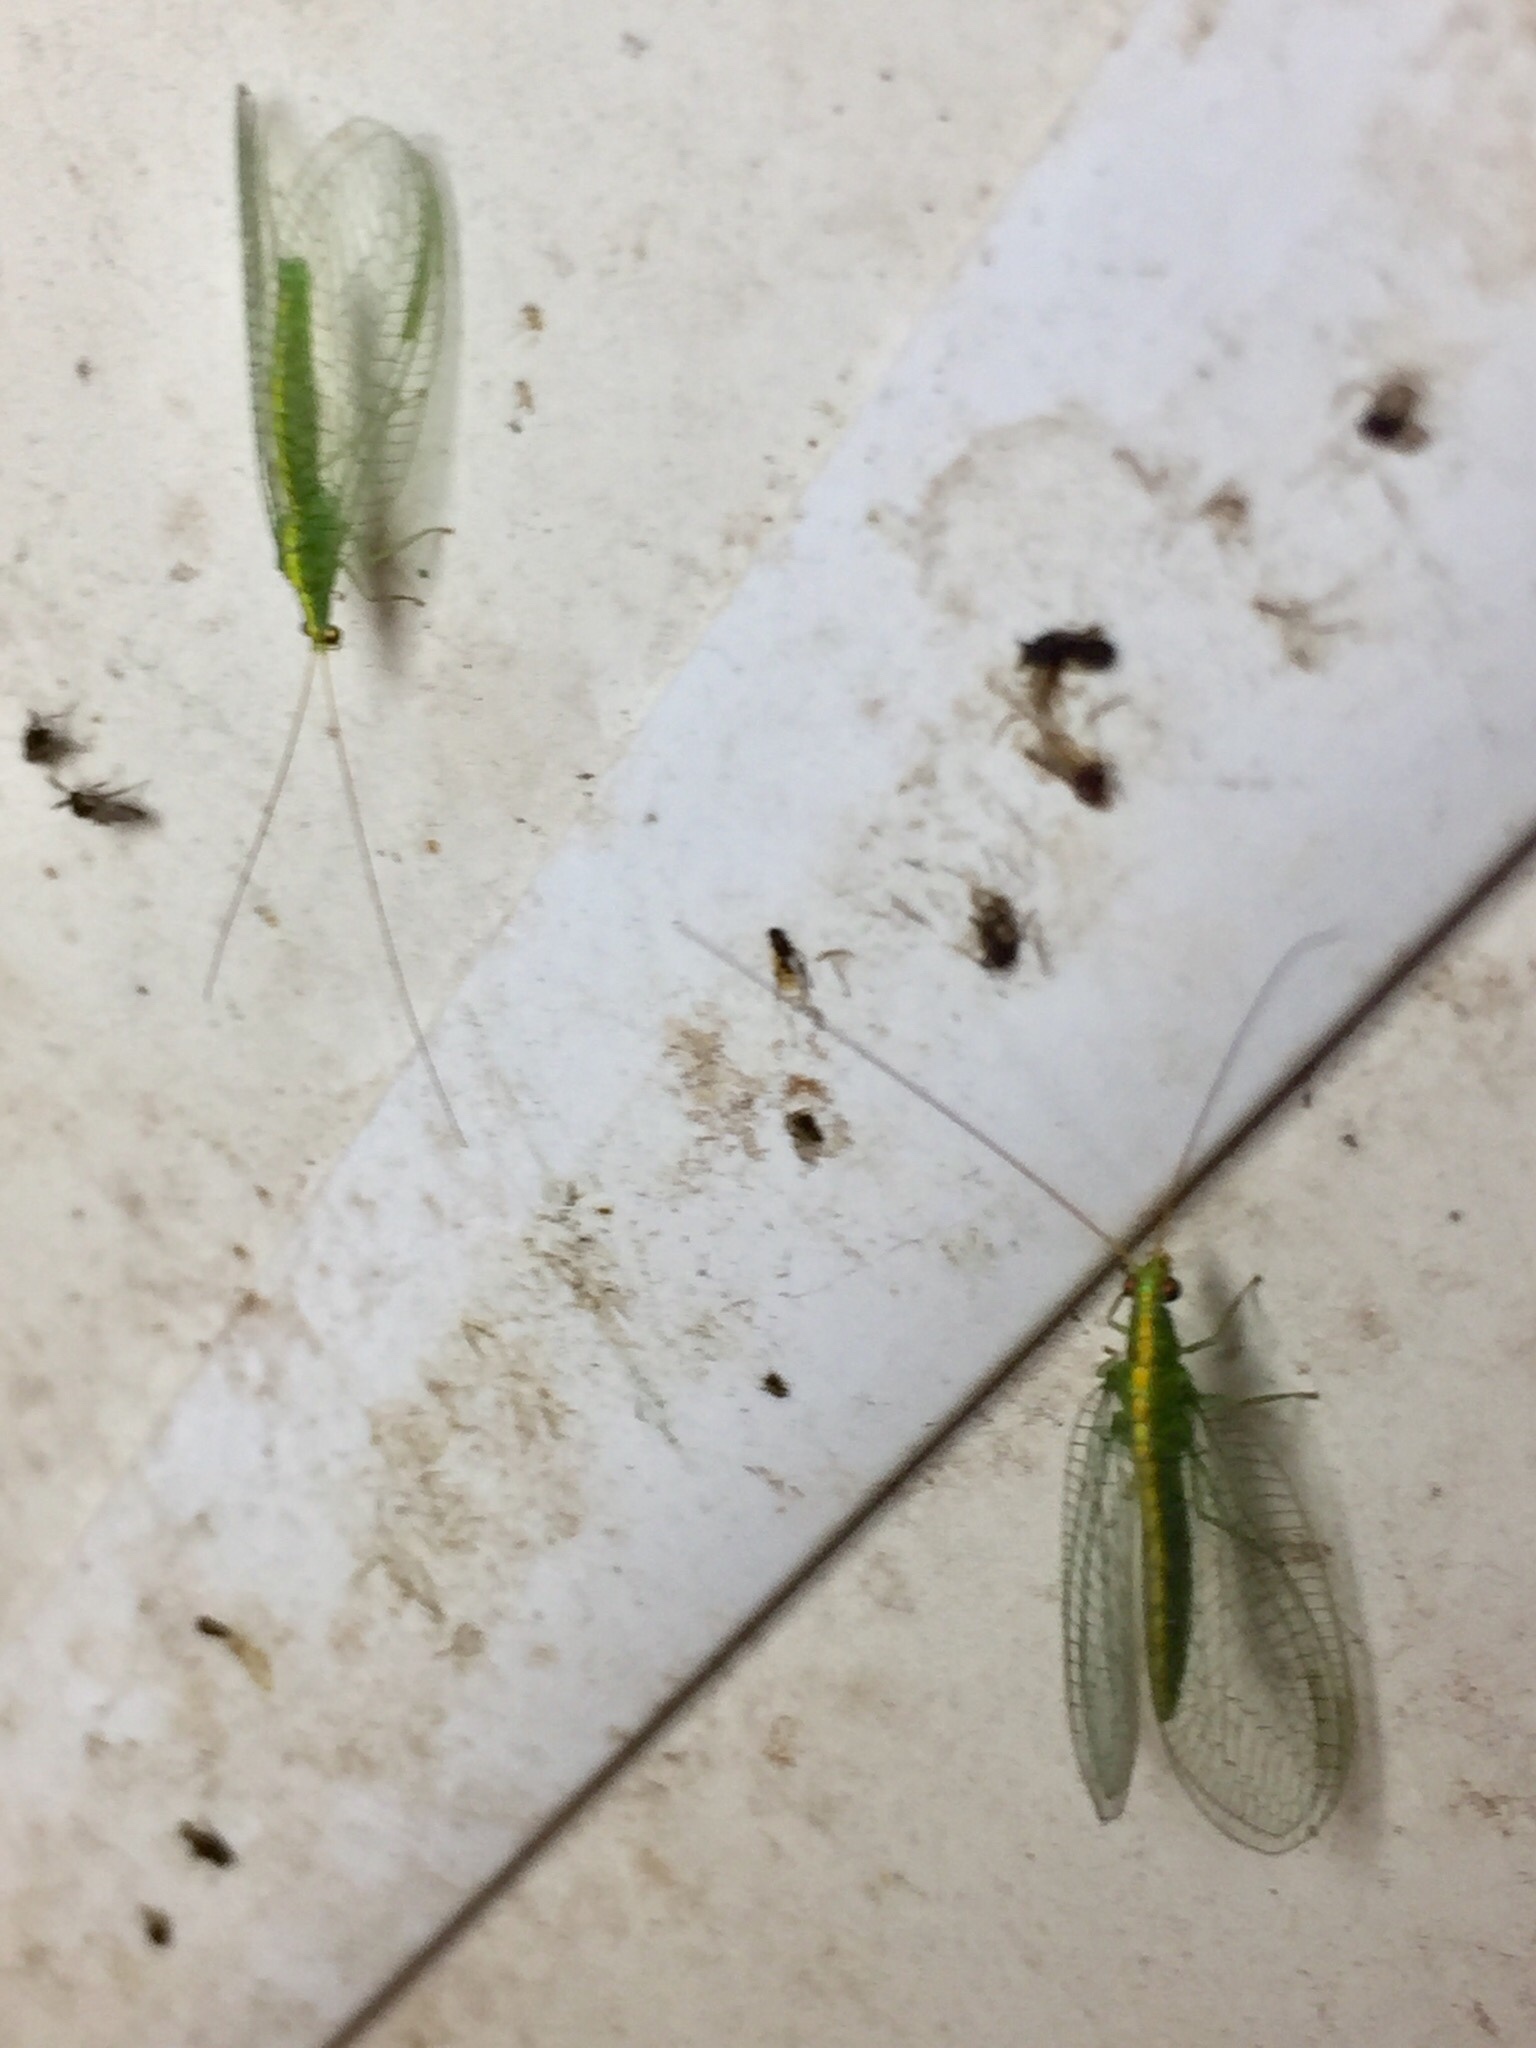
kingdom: Animalia
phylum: Arthropoda
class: Insecta
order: Neuroptera
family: Chrysopidae
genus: Mallada
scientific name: Mallada basalis
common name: Green lacewing
